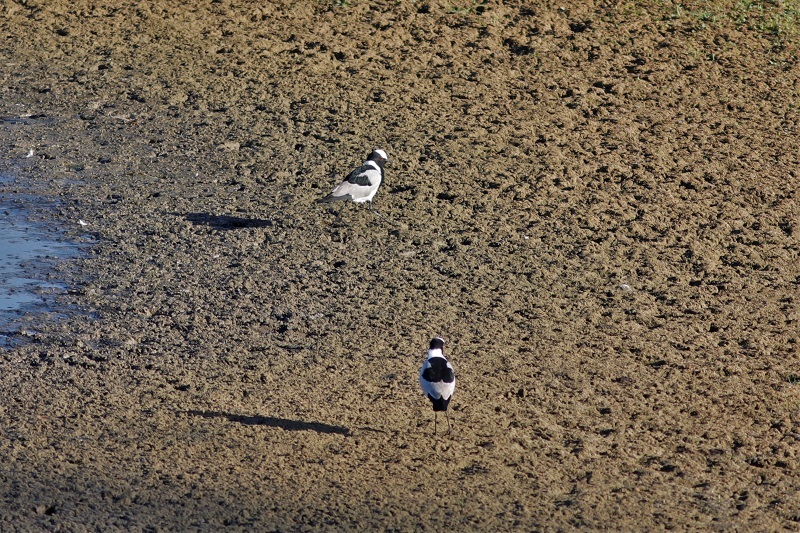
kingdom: Animalia
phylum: Chordata
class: Aves
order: Charadriiformes
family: Charadriidae
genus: Vanellus
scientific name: Vanellus armatus
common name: Blacksmith lapwing
